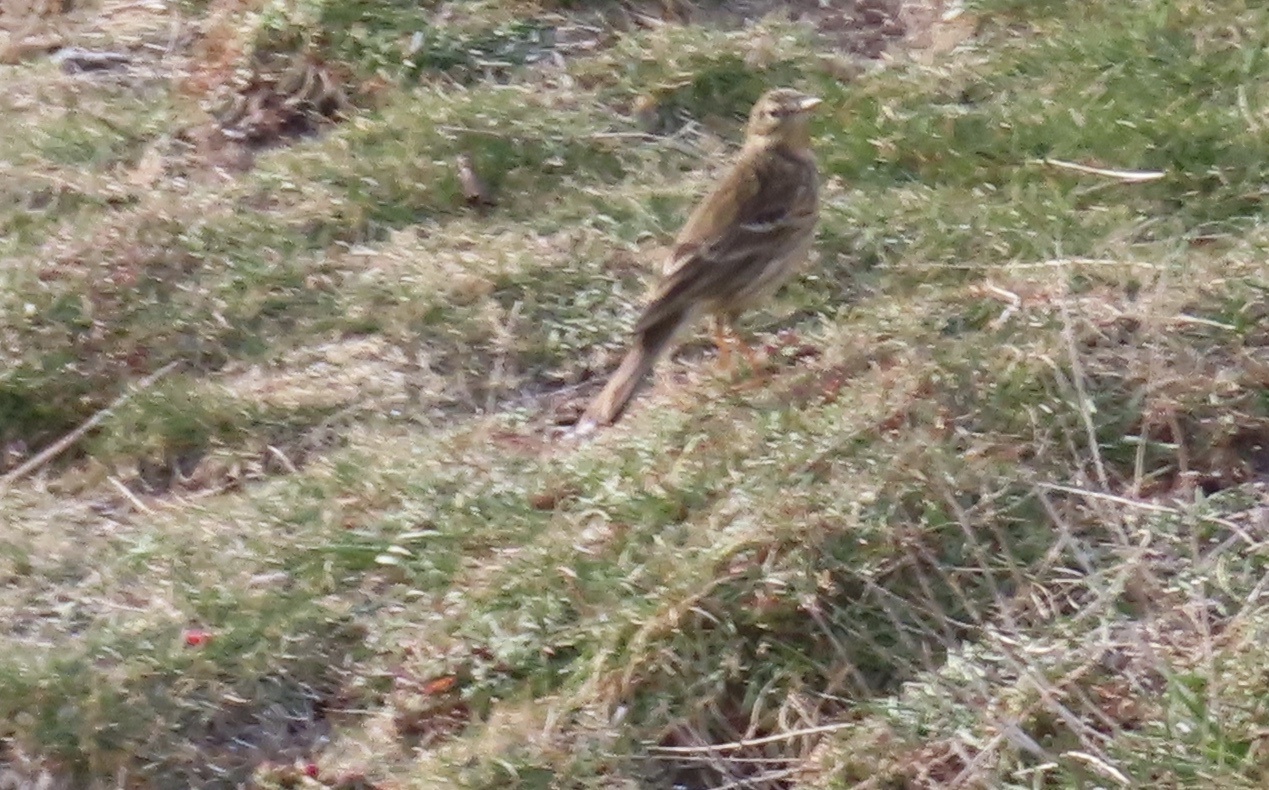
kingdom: Animalia
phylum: Chordata
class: Aves
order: Passeriformes
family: Motacillidae
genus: Anthus
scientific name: Anthus pratensis
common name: Meadow pipit
